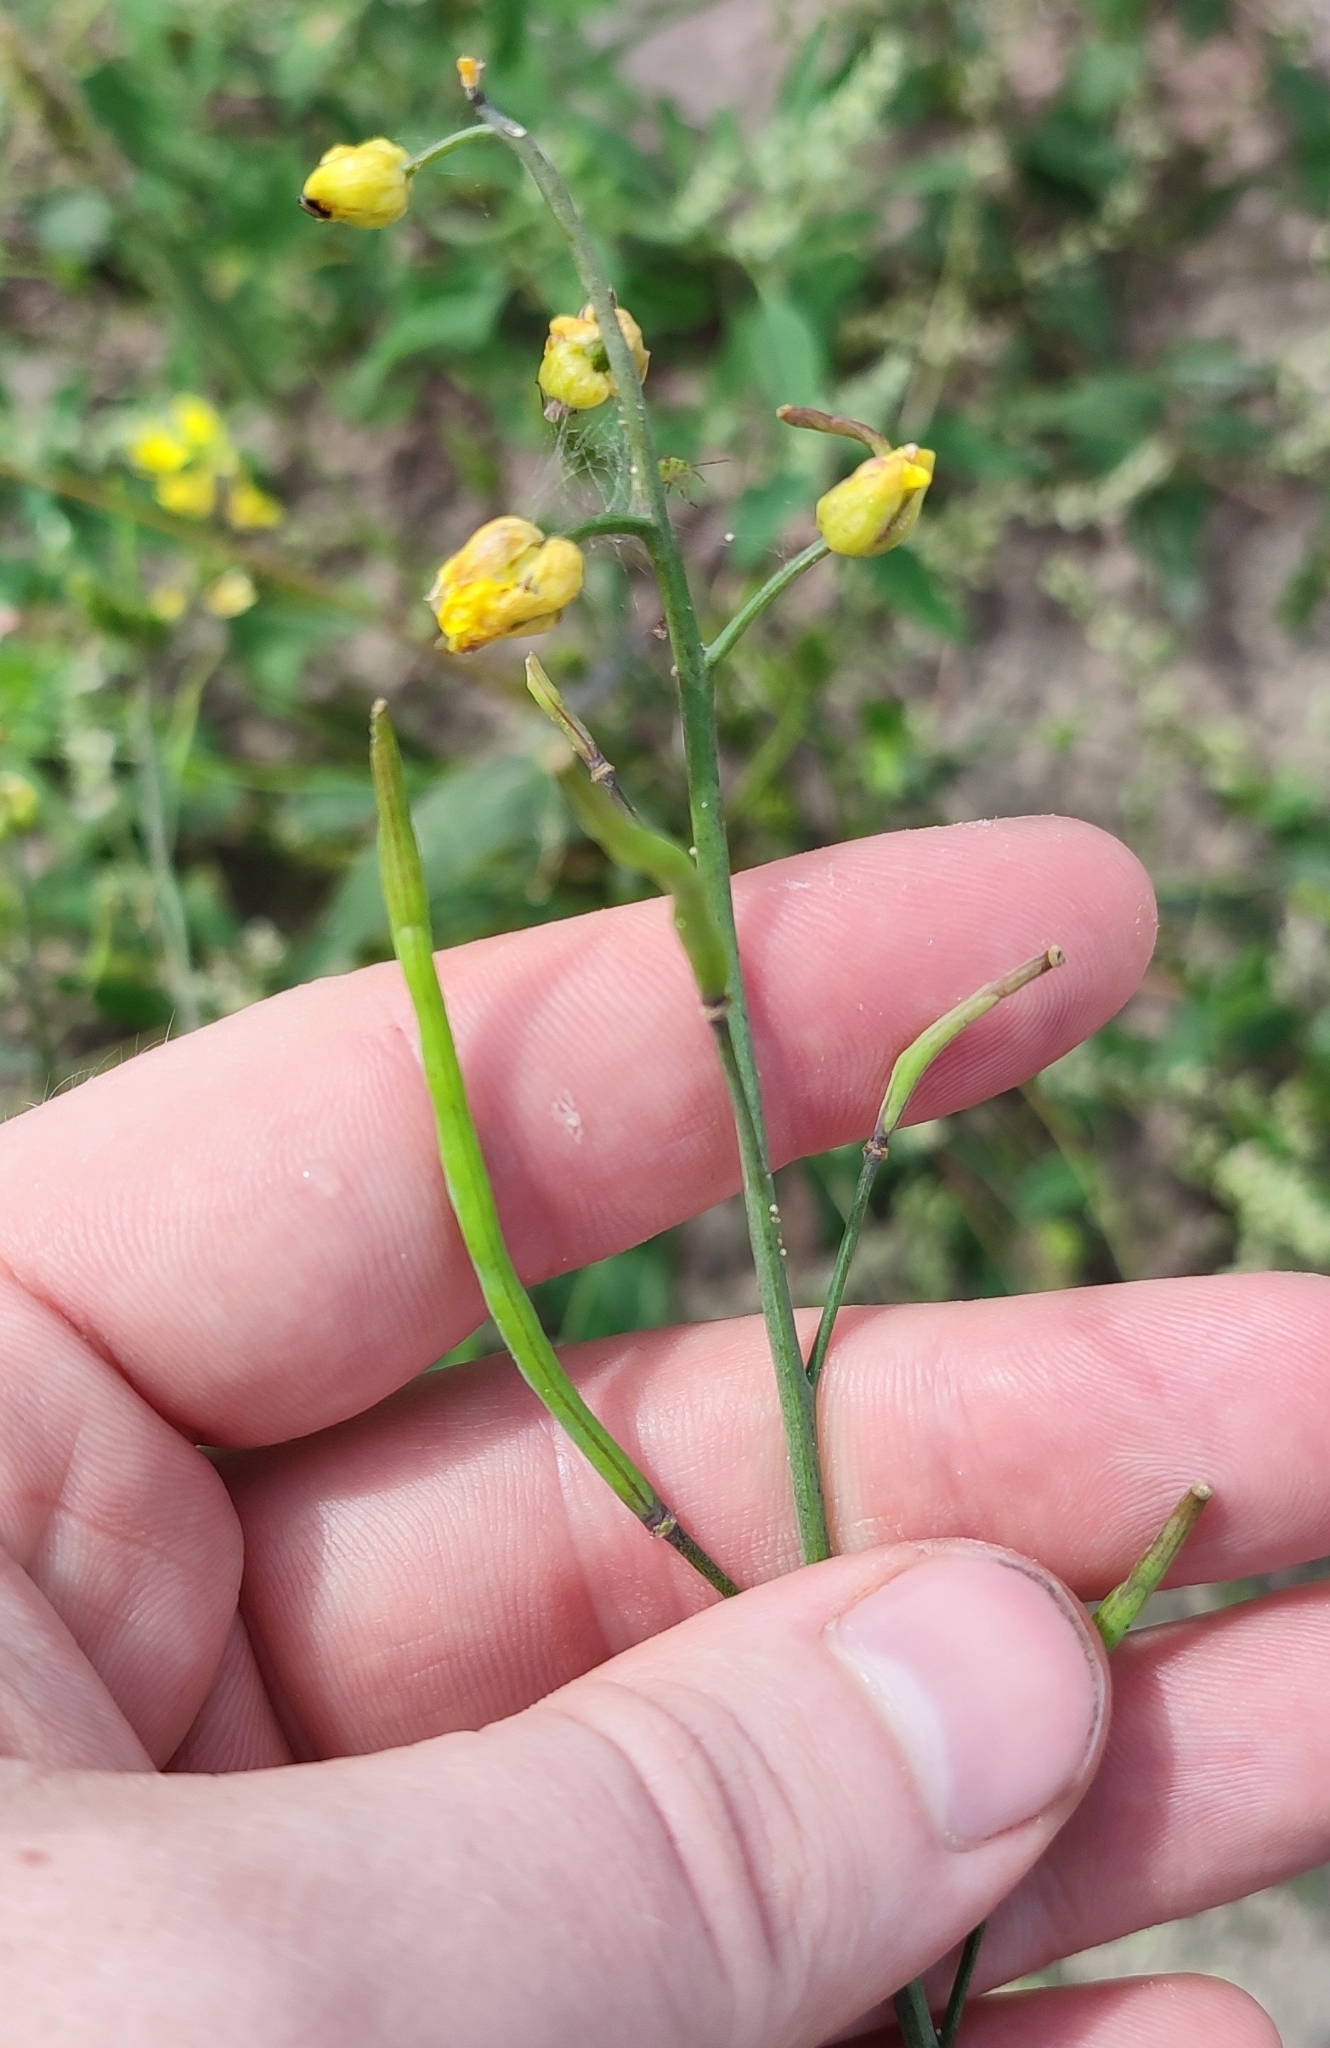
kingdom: Plantae
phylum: Tracheophyta
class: Magnoliopsida
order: Brassicales
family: Brassicaceae
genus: Brassica
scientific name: Brassica rapa
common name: Field mustard
